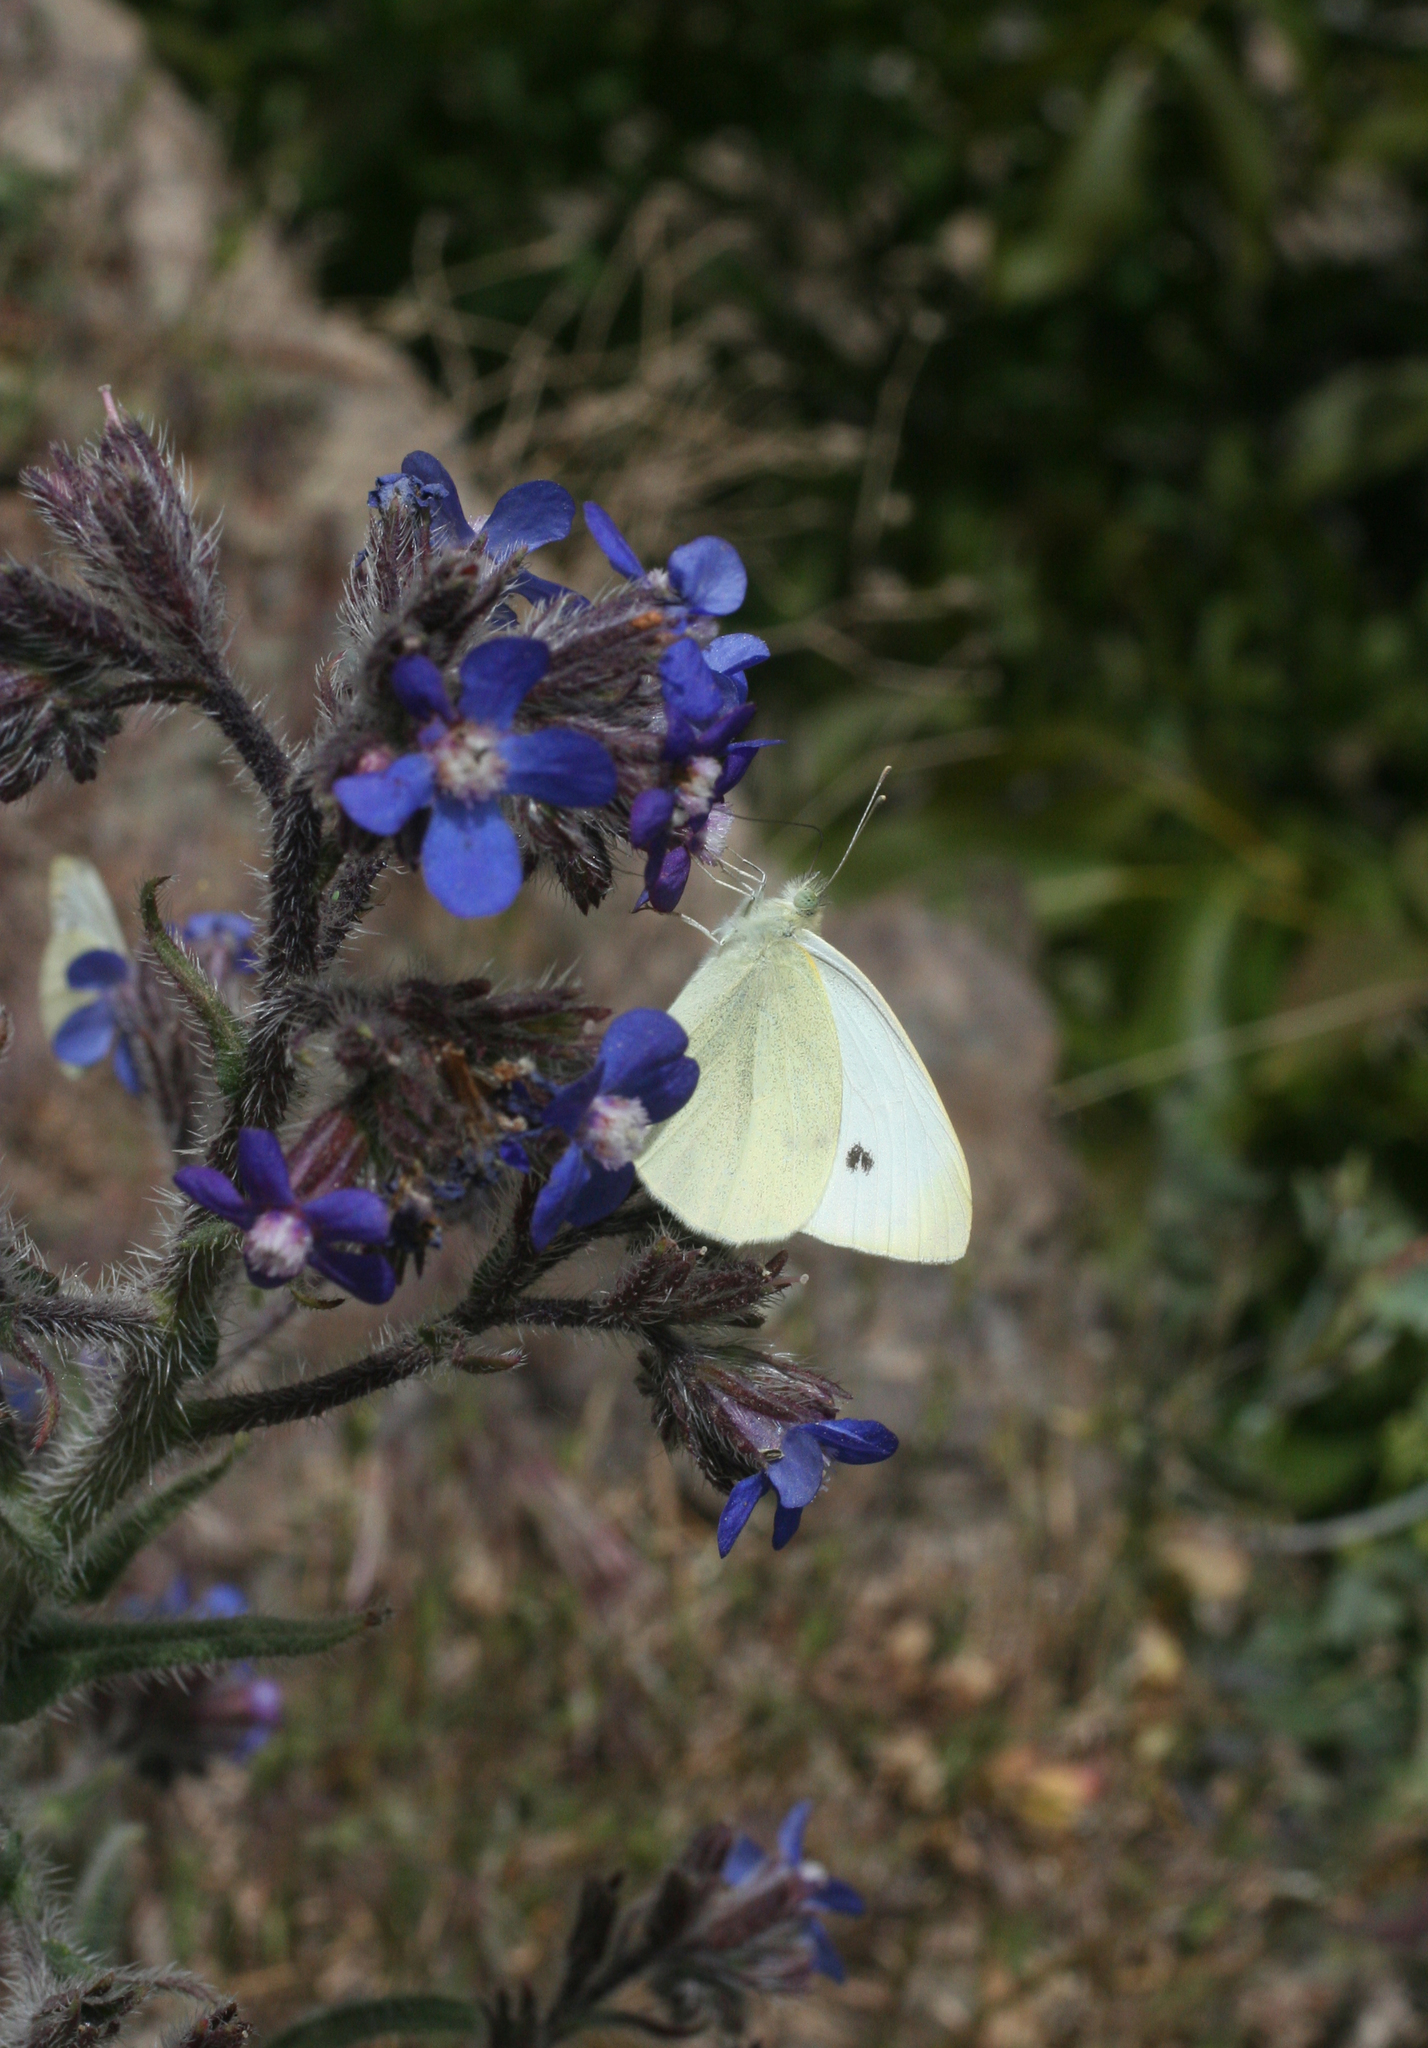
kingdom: Plantae
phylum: Tracheophyta
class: Magnoliopsida
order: Boraginales
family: Boraginaceae
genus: Anchusa
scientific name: Anchusa azurea
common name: Garden anchusa
